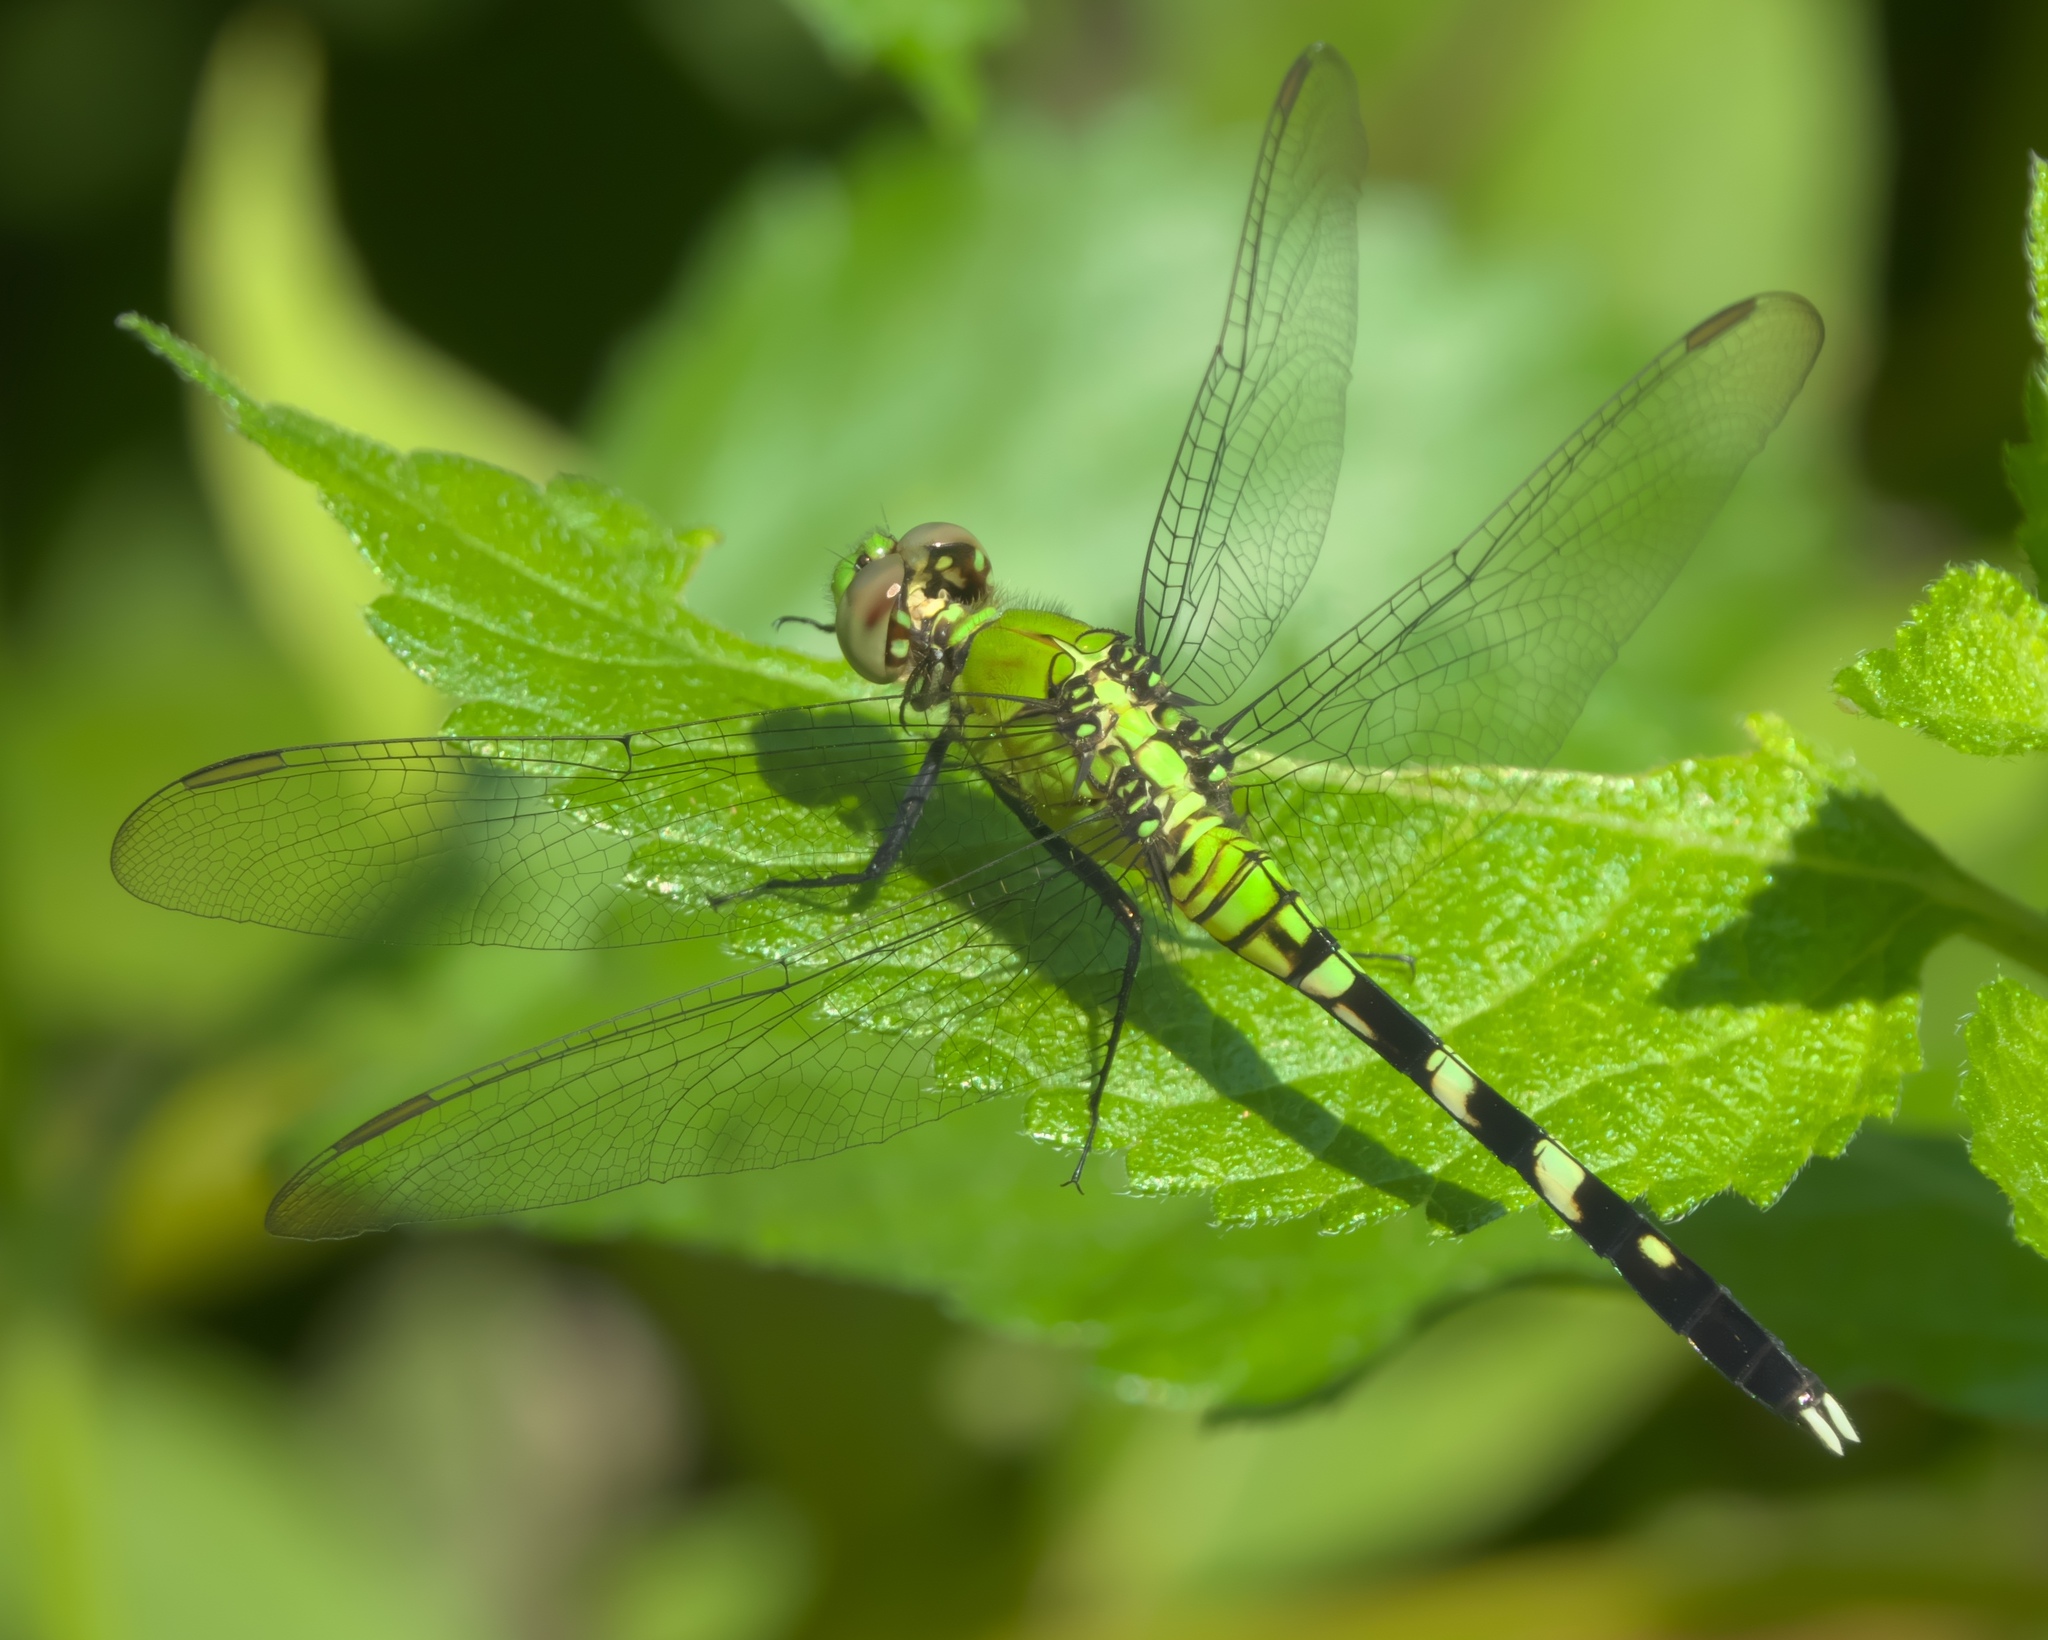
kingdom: Animalia
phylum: Arthropoda
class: Insecta
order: Odonata
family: Libellulidae
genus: Erythemis
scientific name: Erythemis simplicicollis
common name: Eastern pondhawk
